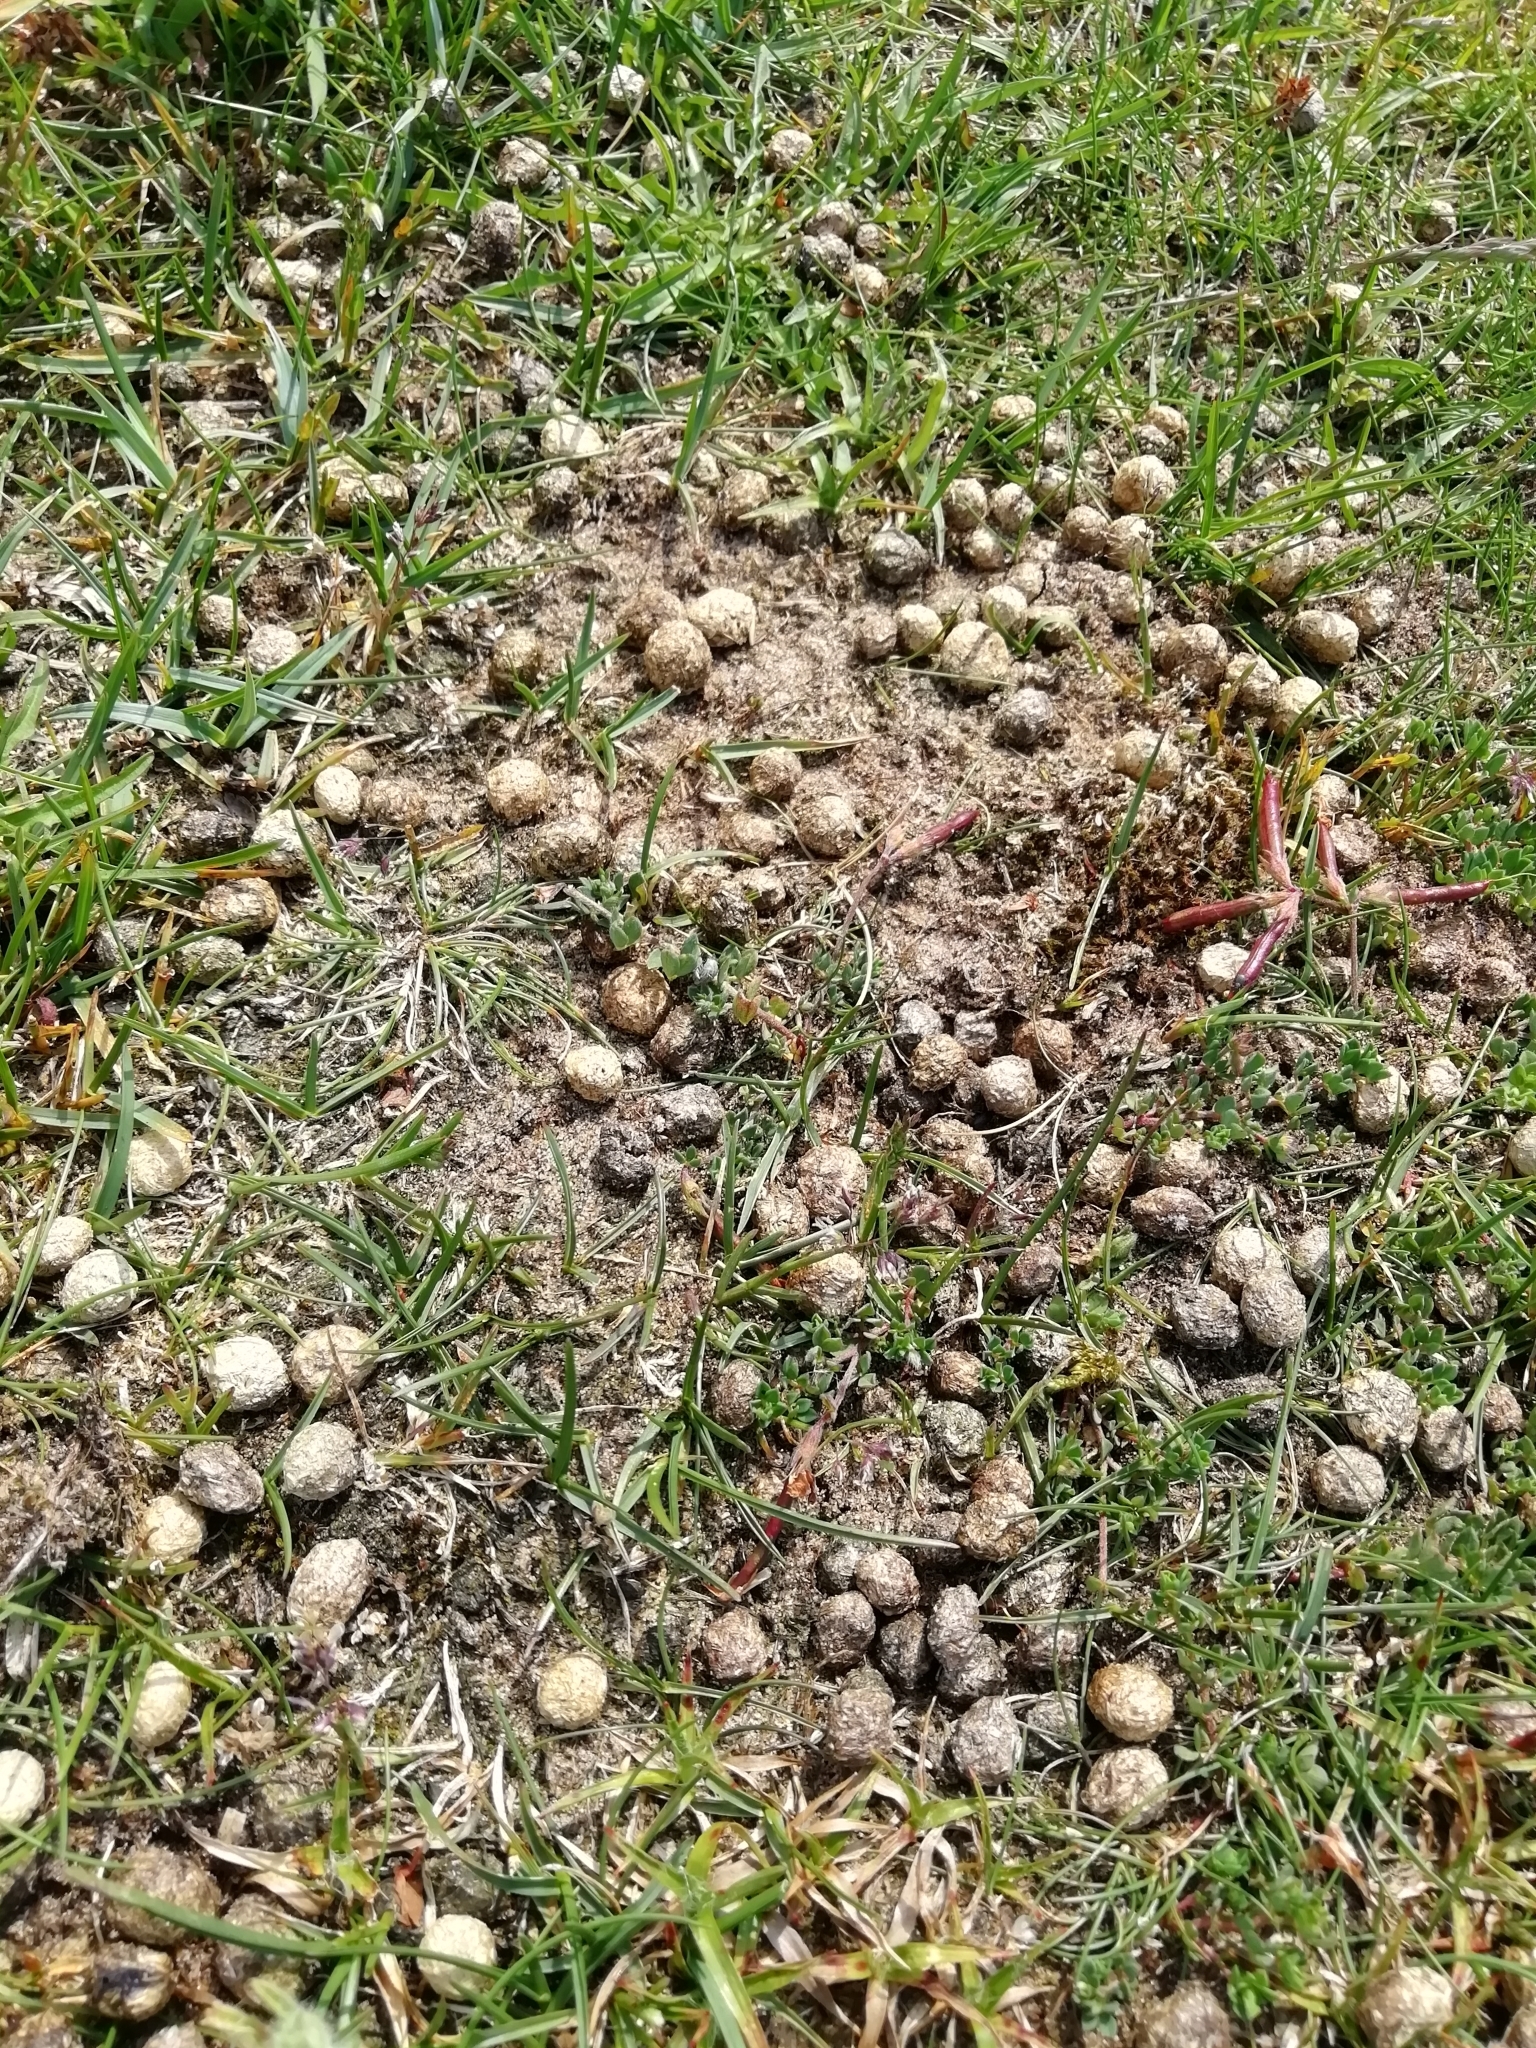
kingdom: Animalia
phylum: Chordata
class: Mammalia
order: Lagomorpha
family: Leporidae
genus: Oryctolagus
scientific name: Oryctolagus cuniculus
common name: European rabbit
